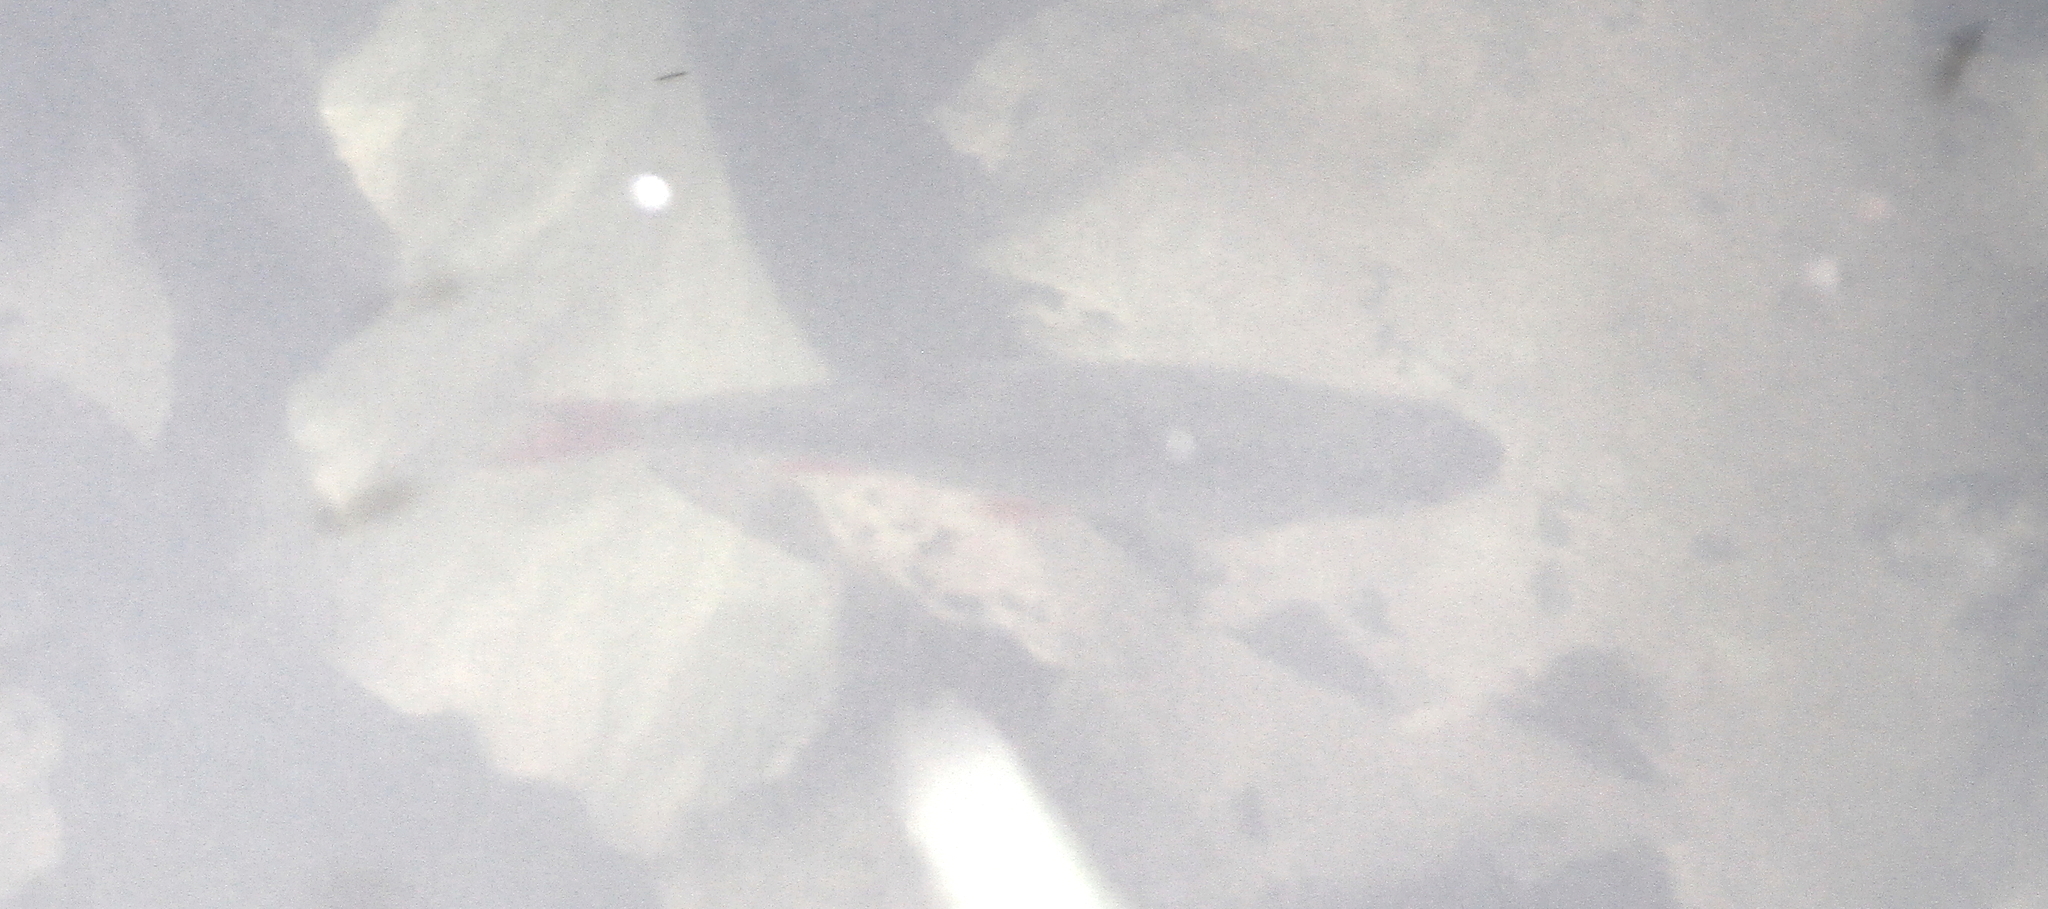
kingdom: Animalia
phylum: Chordata
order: Perciformes
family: Percidae
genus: Perca
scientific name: Perca fluviatilis
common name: Perch
